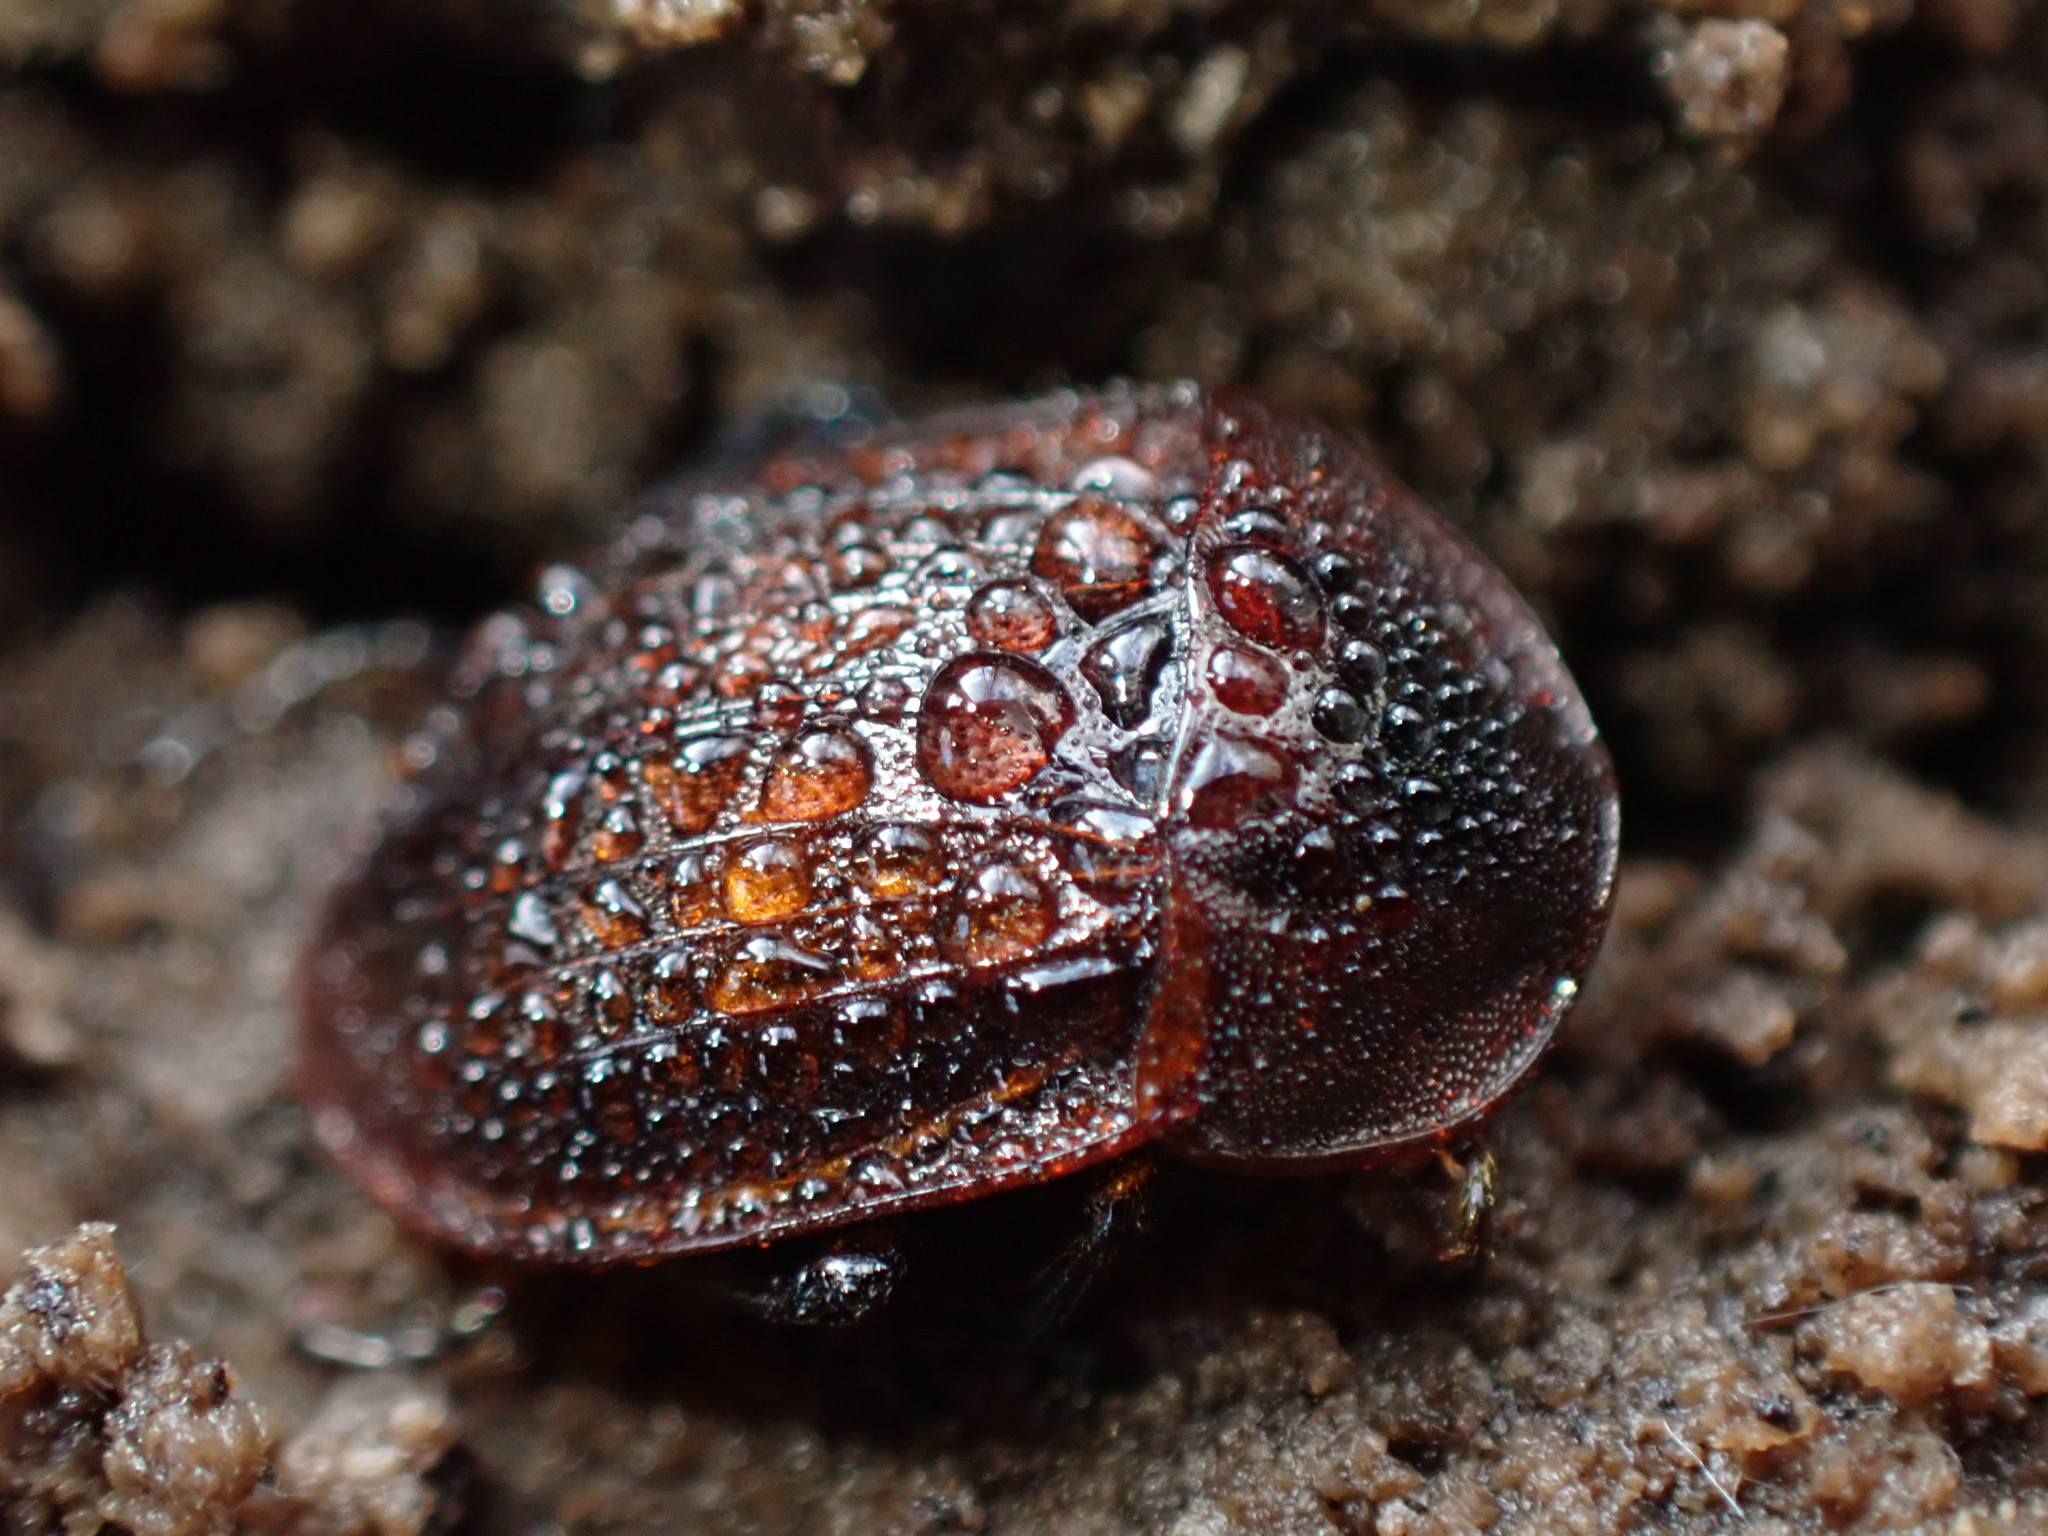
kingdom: Animalia
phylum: Arthropoda
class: Insecta
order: Coleoptera
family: Staphylinidae
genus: Silpha
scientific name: Silpha atrata
